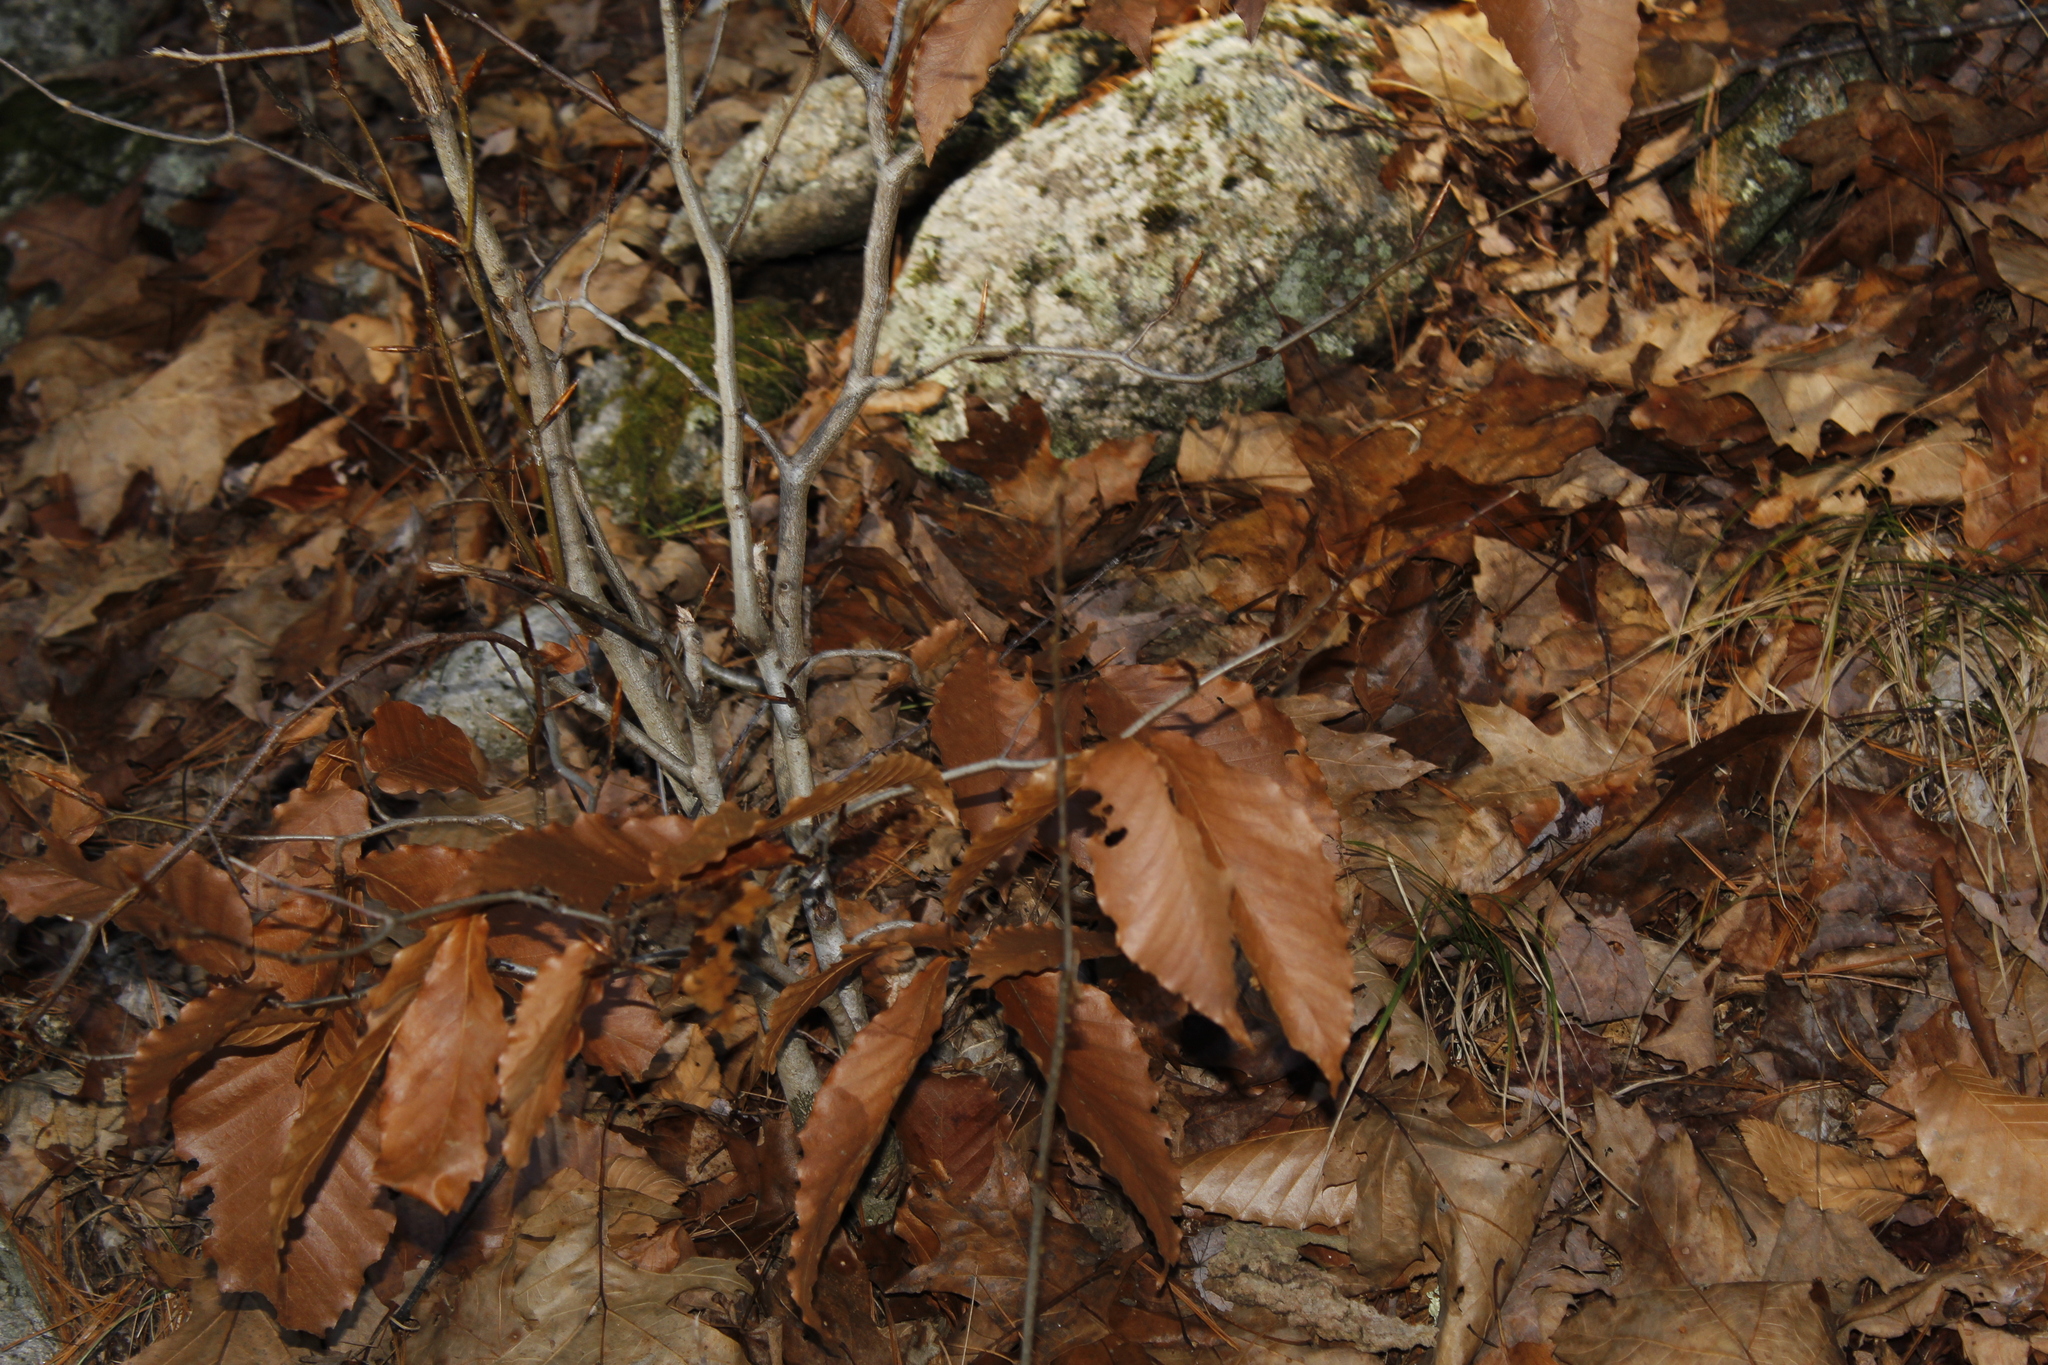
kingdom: Plantae
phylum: Tracheophyta
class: Magnoliopsida
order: Fagales
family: Fagaceae
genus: Fagus
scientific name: Fagus grandifolia
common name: American beech
